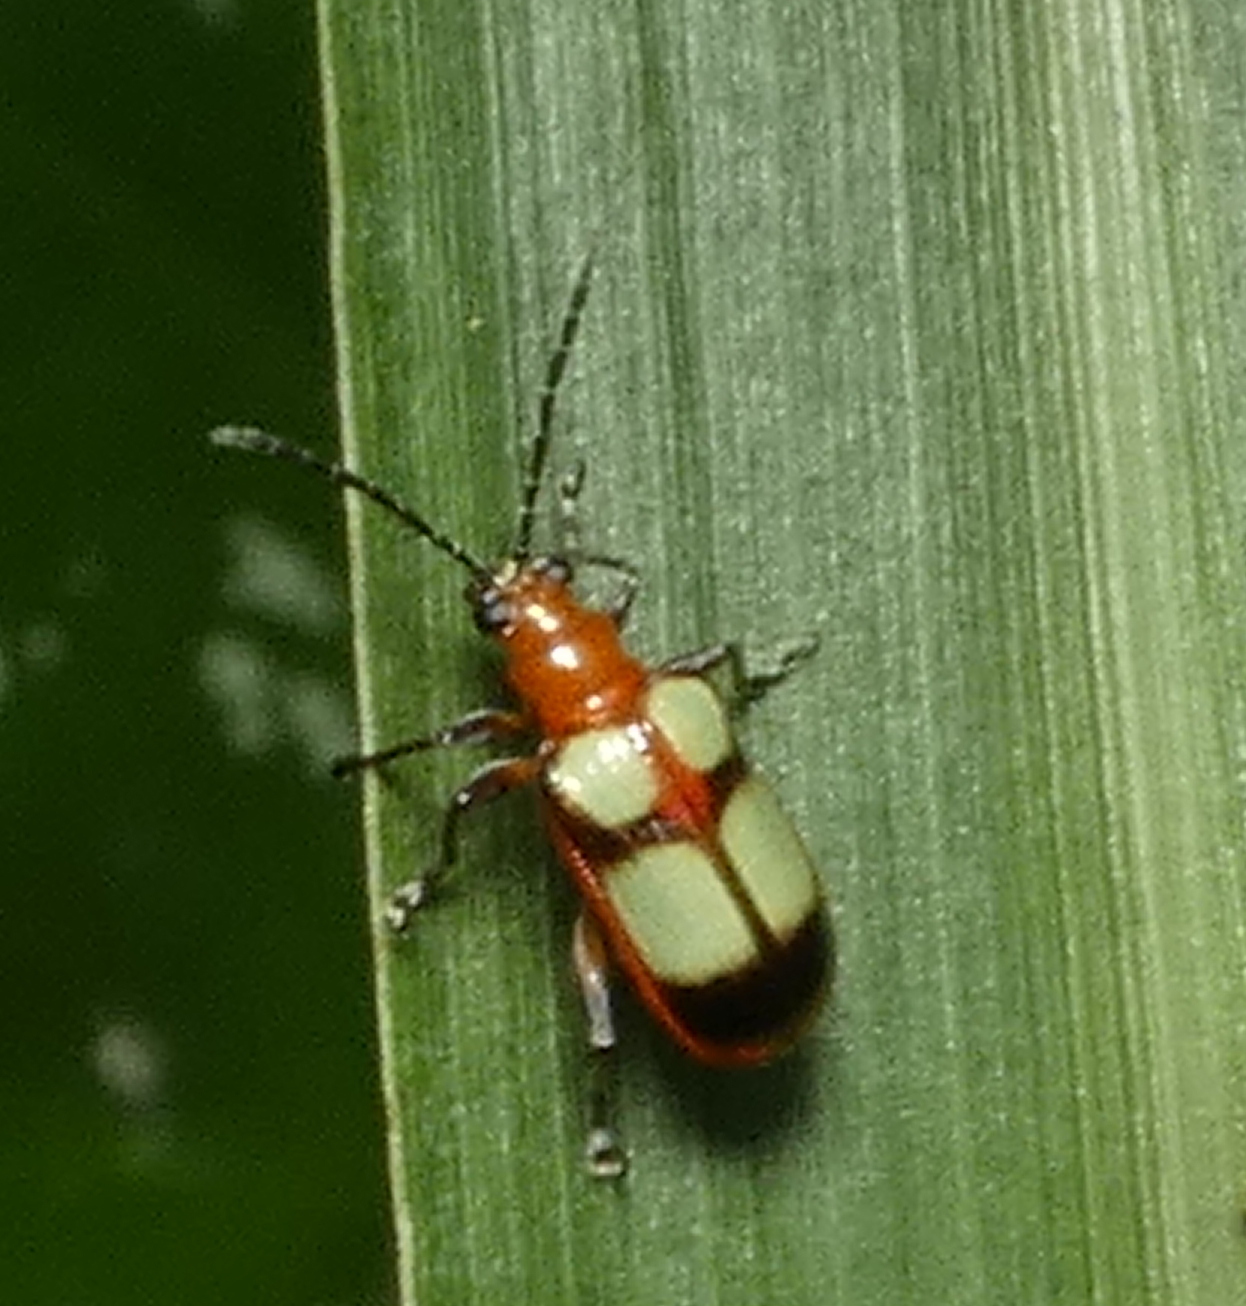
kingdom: Animalia
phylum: Arthropoda
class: Insecta
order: Coleoptera
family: Chrysomelidae
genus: Neolema
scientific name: Neolema
